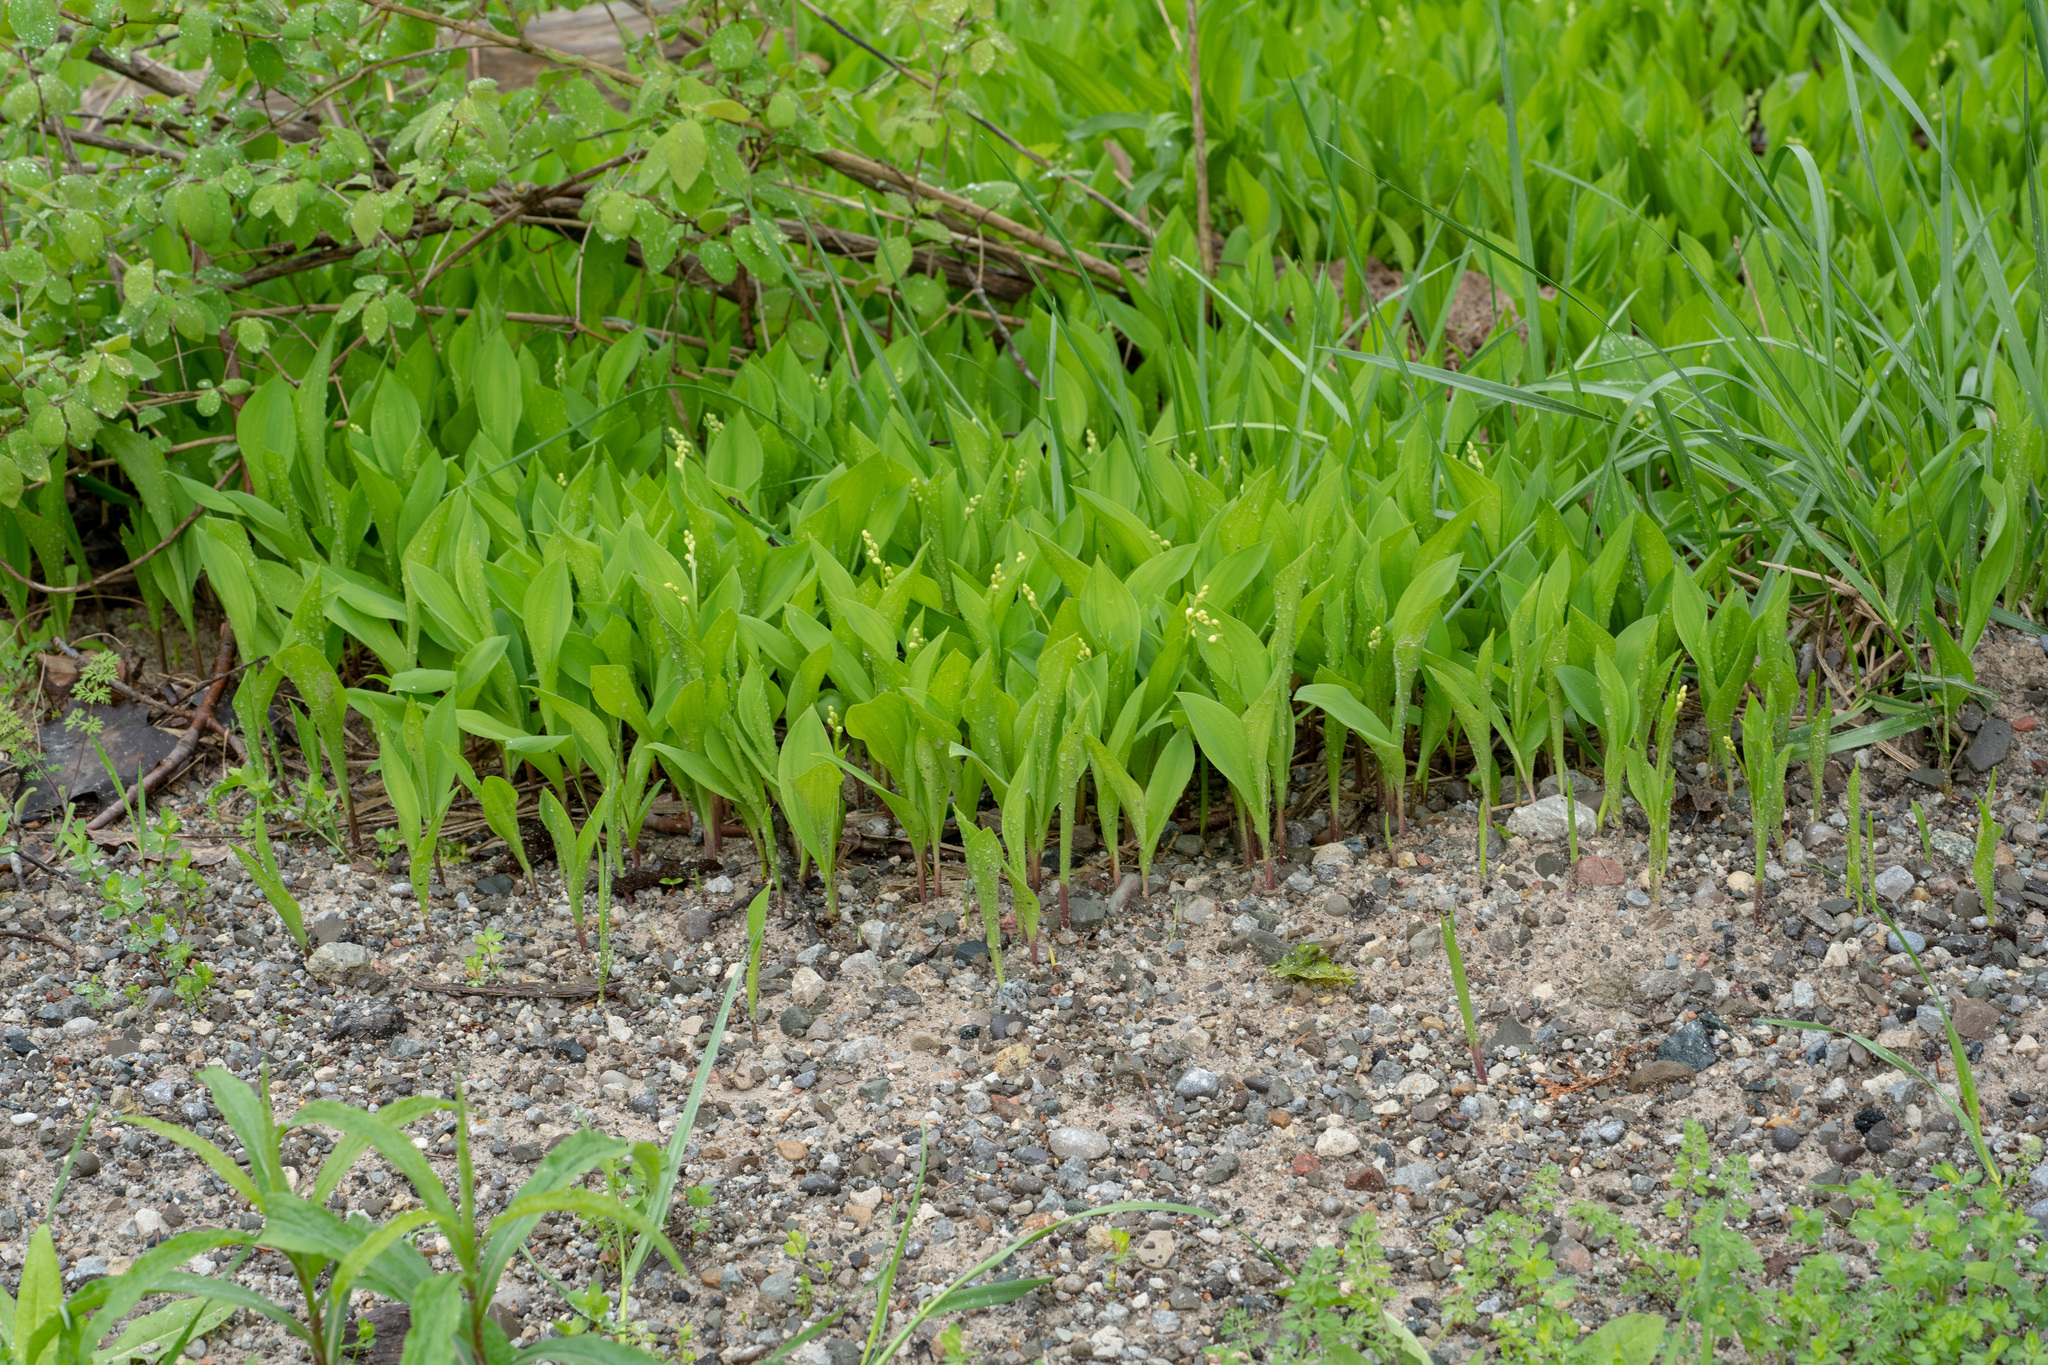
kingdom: Plantae
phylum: Tracheophyta
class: Liliopsida
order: Asparagales
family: Asparagaceae
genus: Convallaria
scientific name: Convallaria majalis
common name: Lily-of-the-valley
